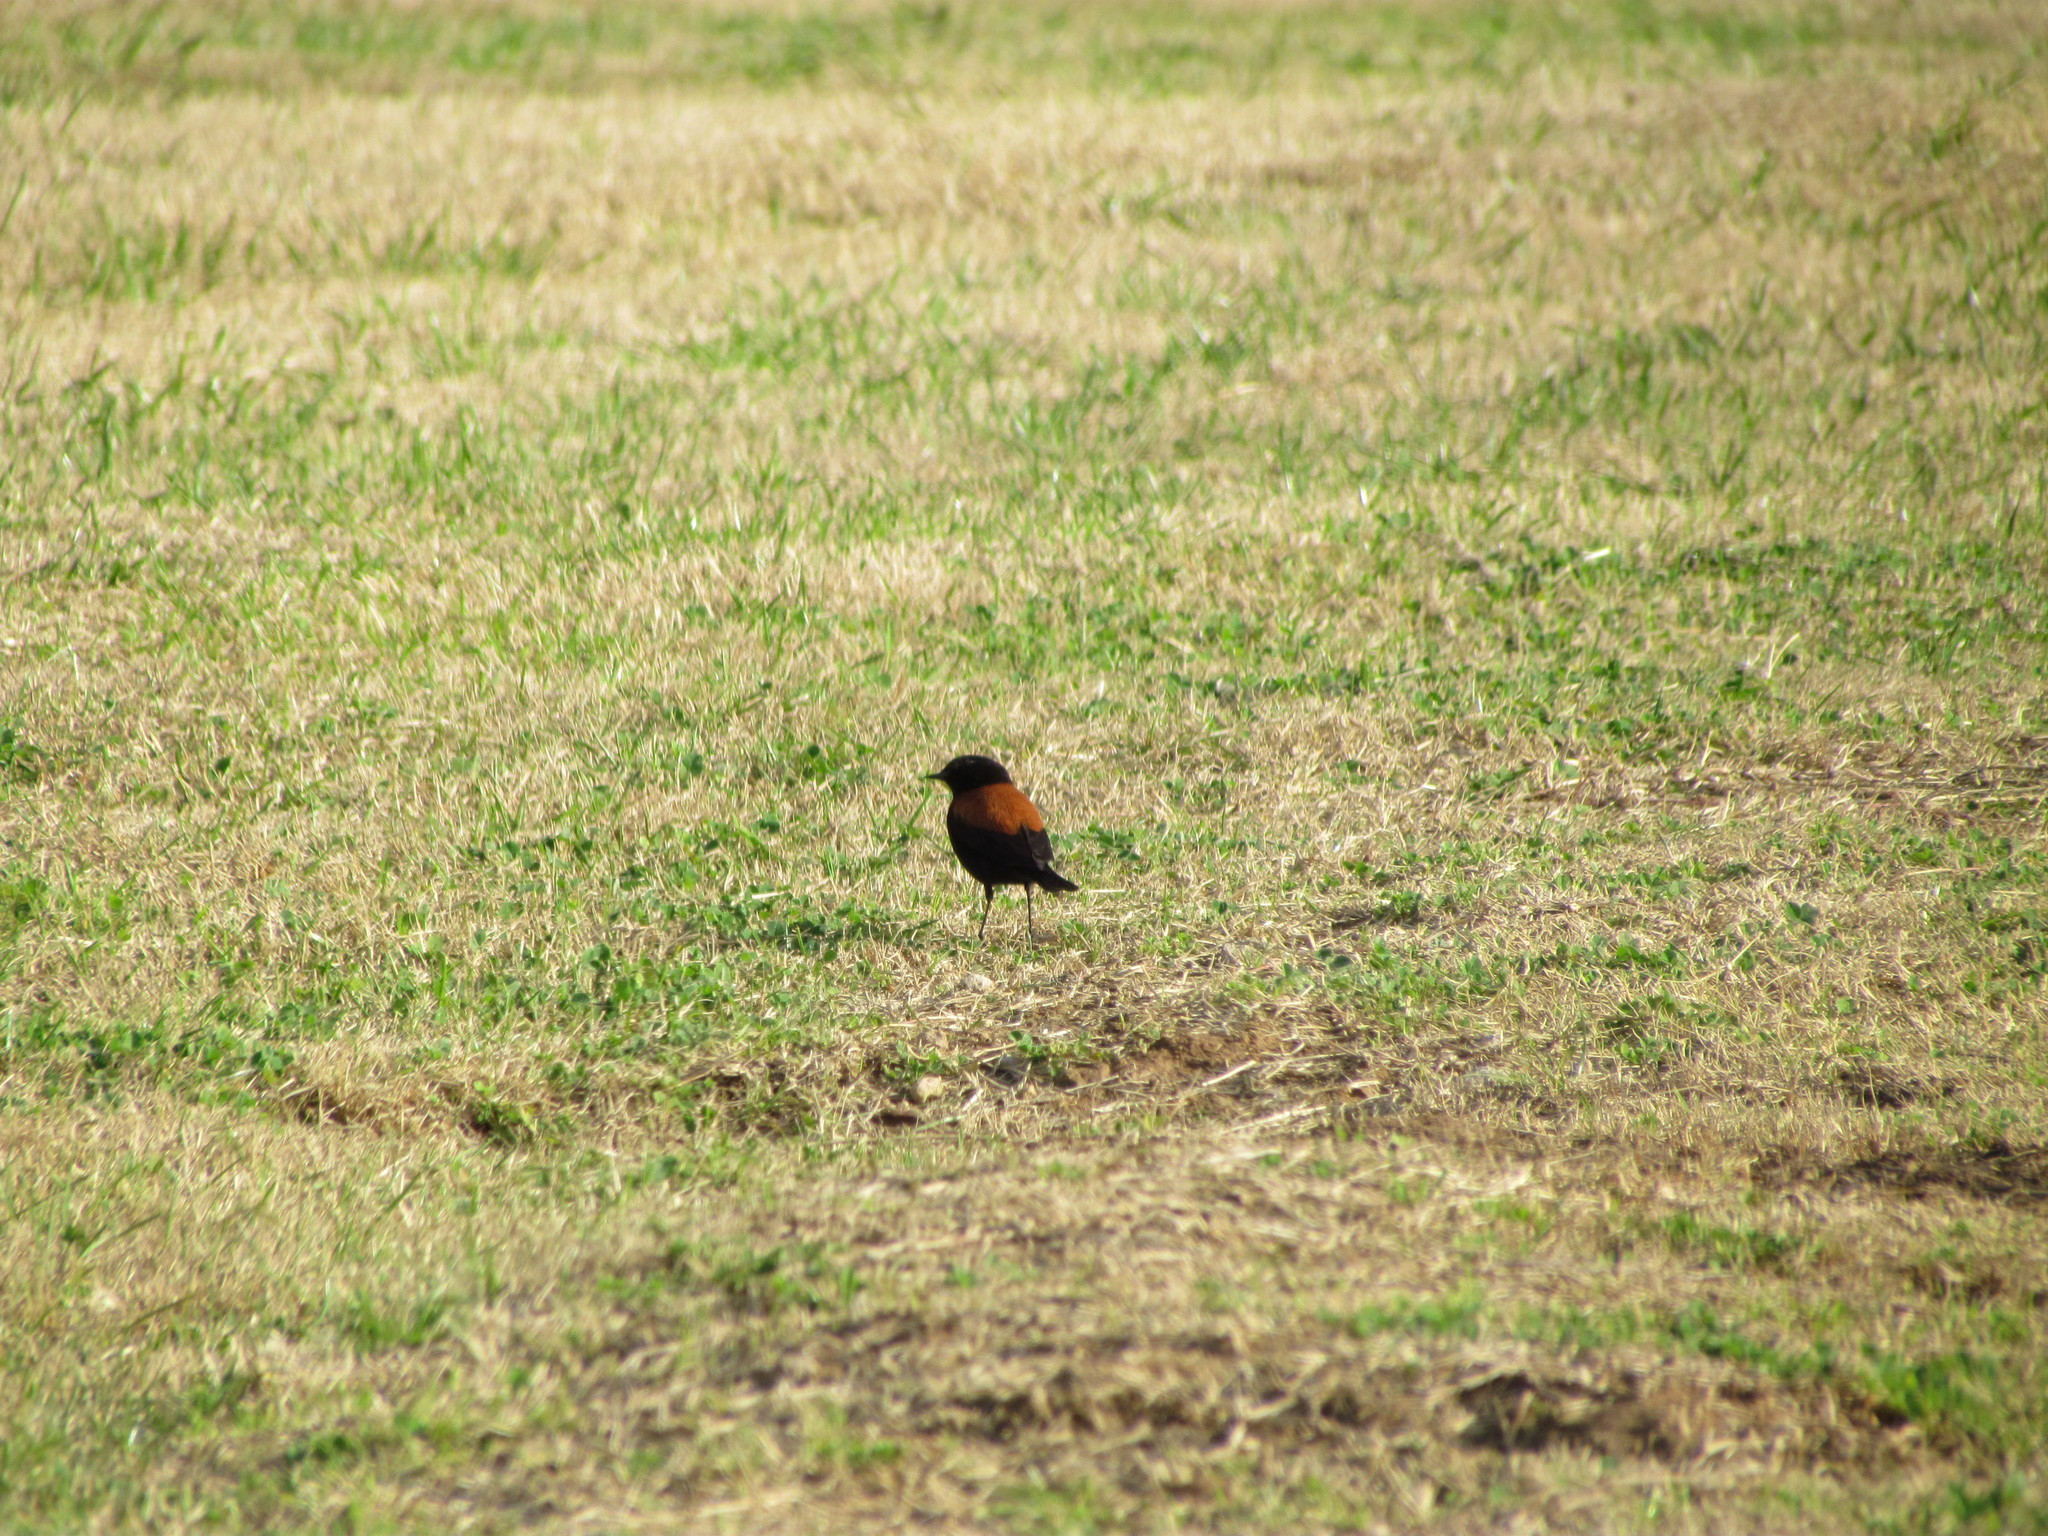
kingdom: Animalia
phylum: Chordata
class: Aves
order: Passeriformes
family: Tyrannidae
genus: Lessonia
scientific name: Lessonia rufa
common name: Austral negrito
